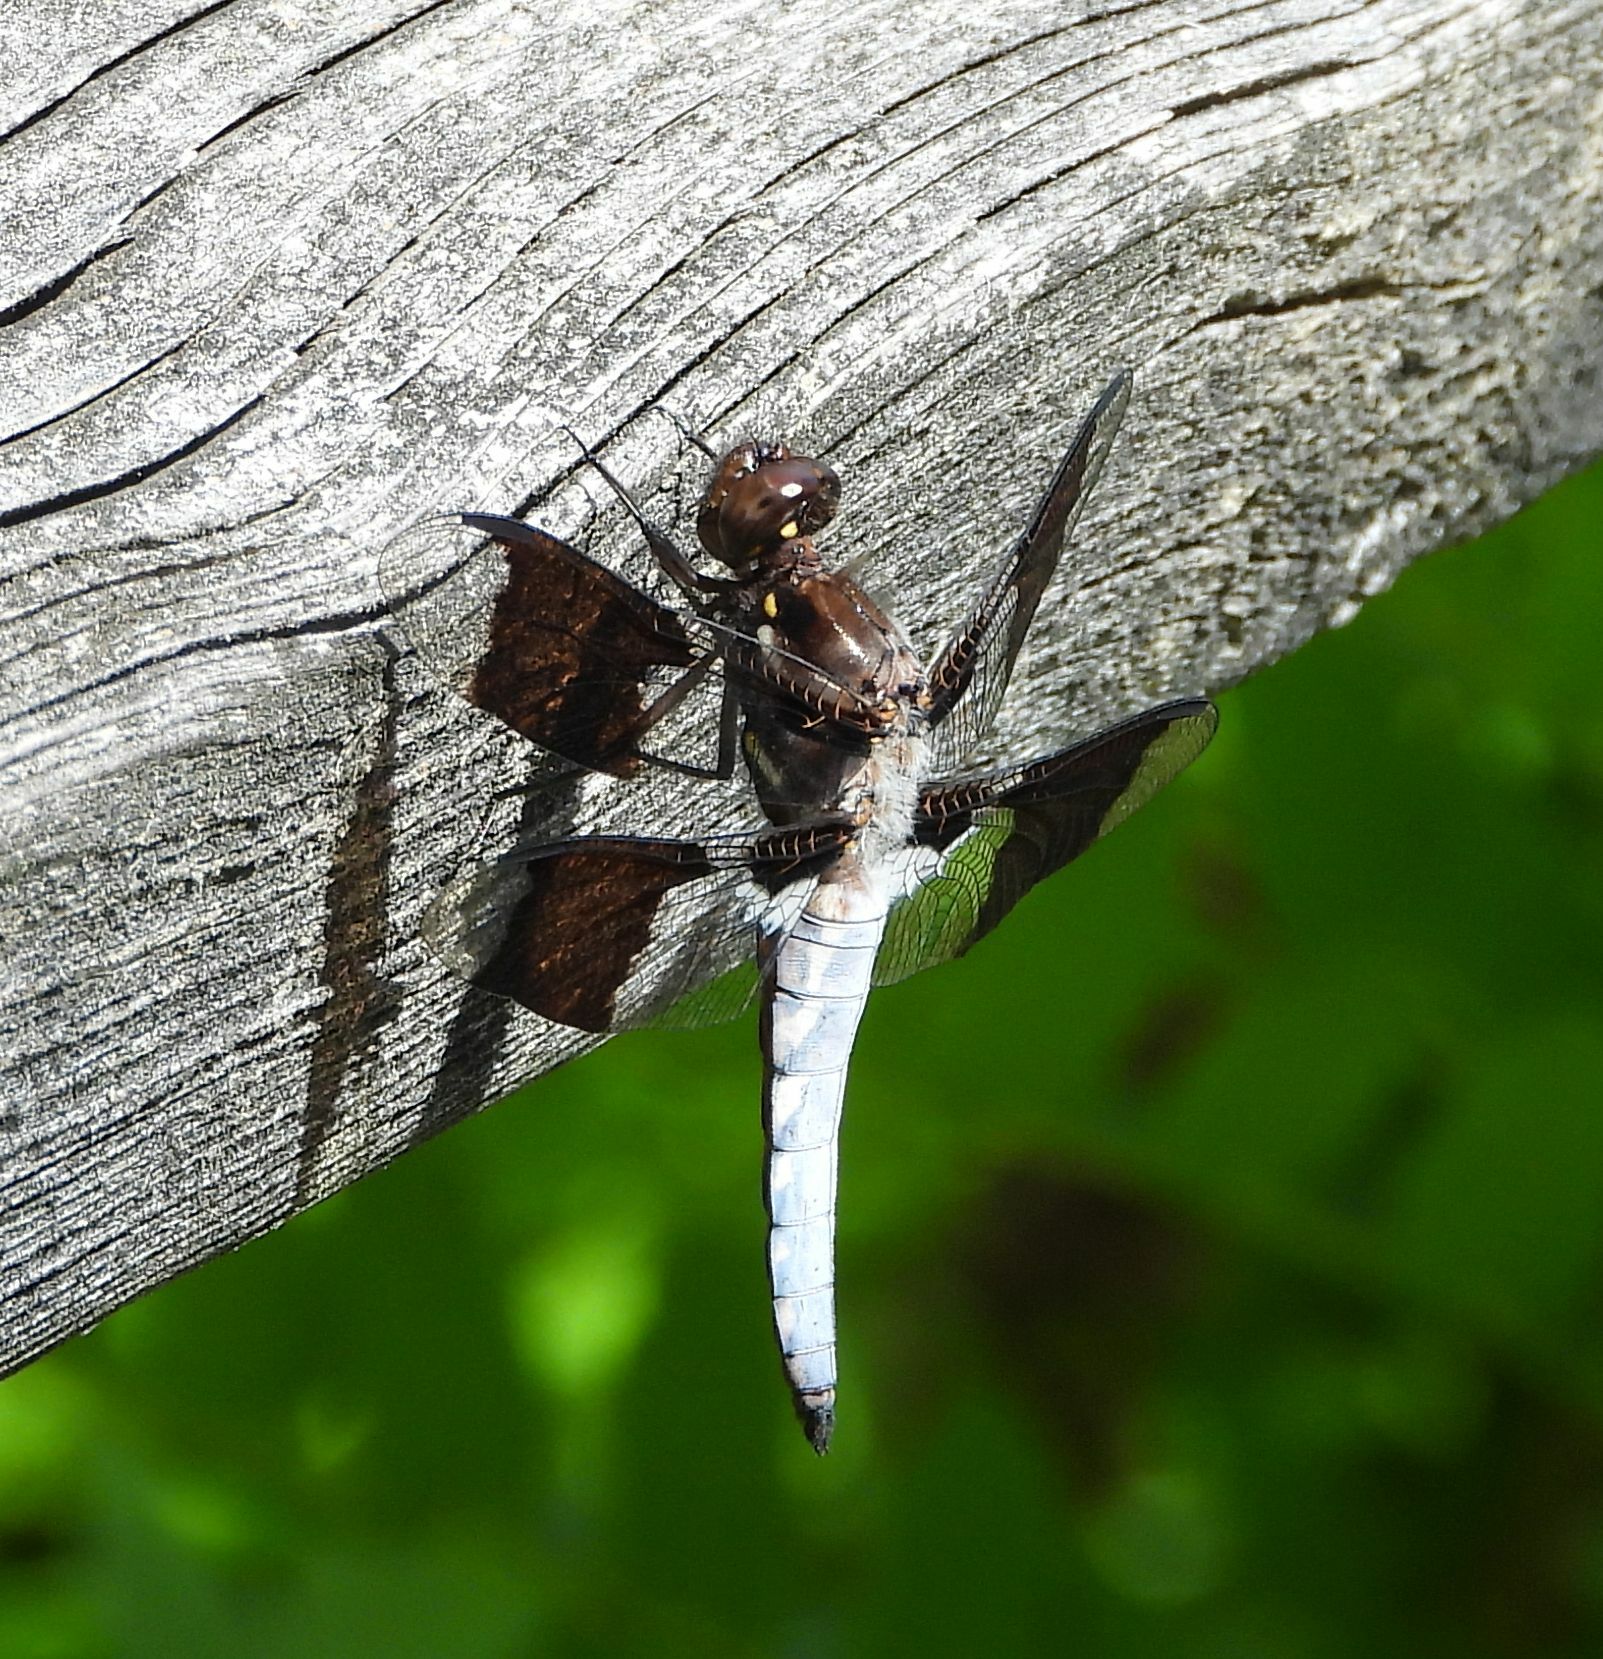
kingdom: Animalia
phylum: Arthropoda
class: Insecta
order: Odonata
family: Libellulidae
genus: Plathemis
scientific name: Plathemis lydia
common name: Common whitetail
